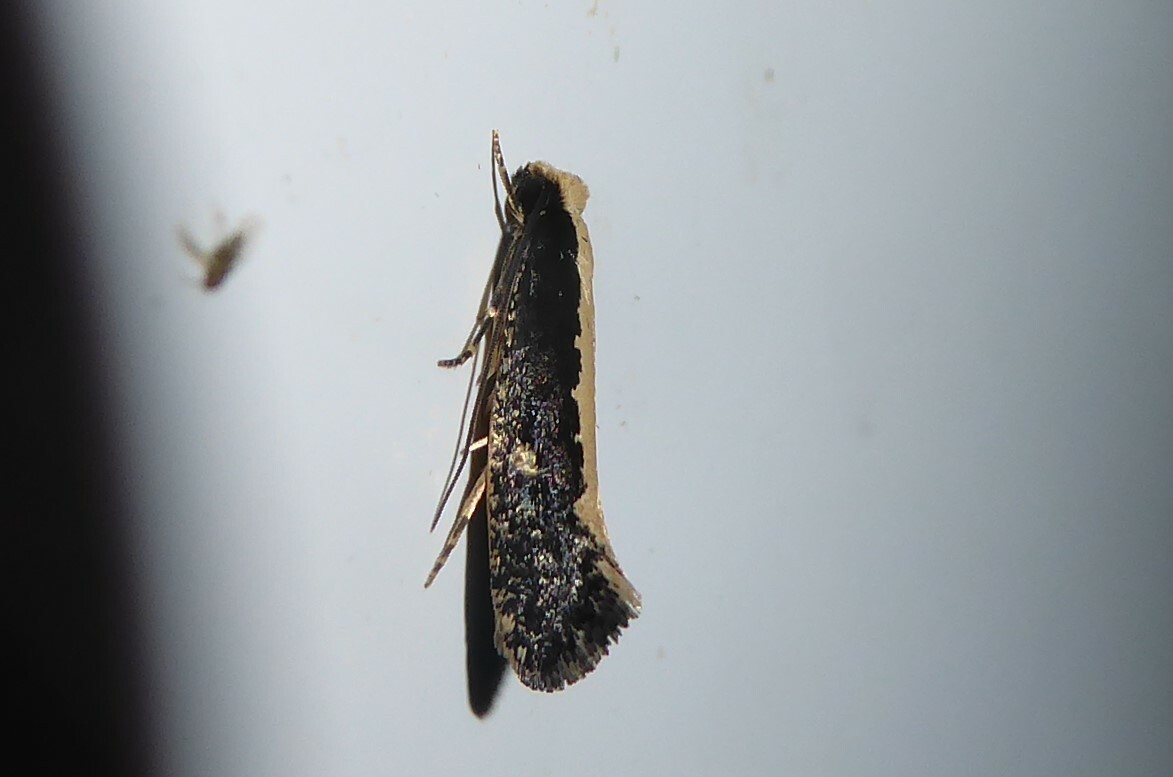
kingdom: Animalia
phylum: Arthropoda
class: Insecta
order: Lepidoptera
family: Tineidae
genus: Monopis
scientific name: Monopis ethelella
